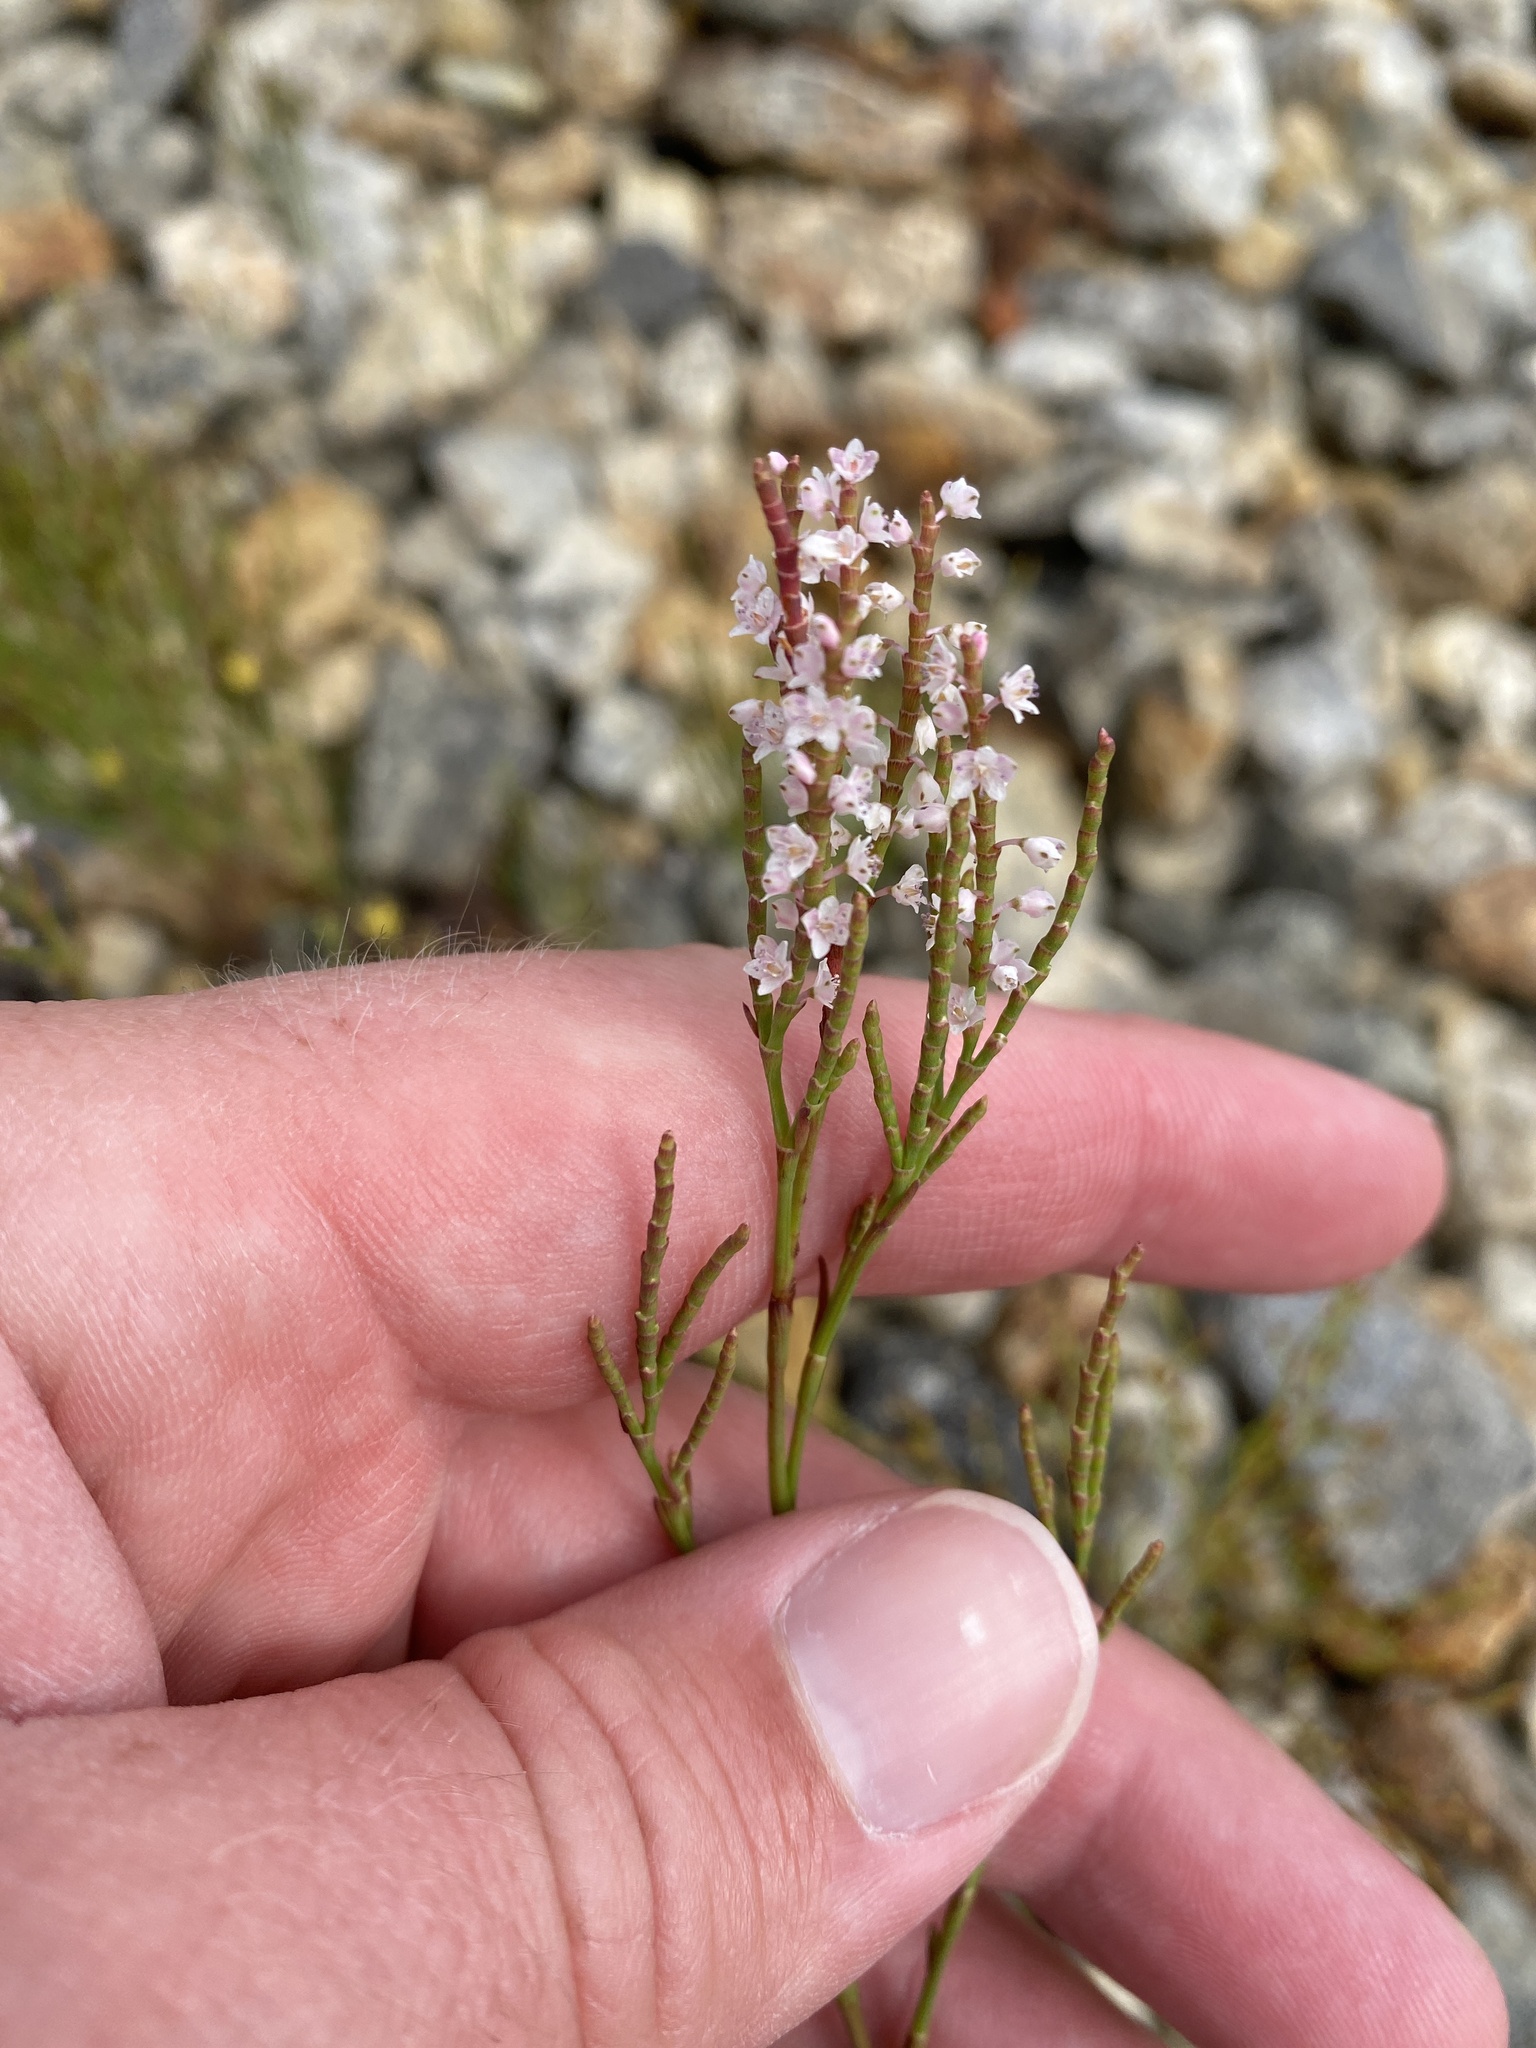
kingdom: Plantae
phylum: Tracheophyta
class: Magnoliopsida
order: Caryophyllales
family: Polygonaceae
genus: Polygonella
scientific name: Polygonella articulata
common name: Coastal jointweed
